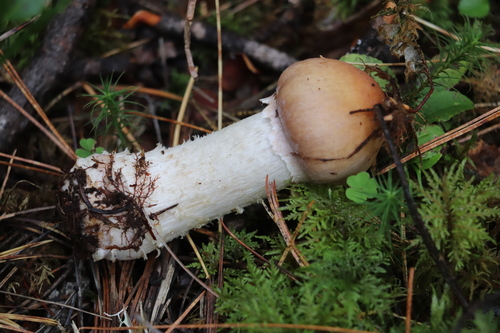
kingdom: Fungi
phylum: Basidiomycota
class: Agaricomycetes
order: Agaricales
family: Cortinariaceae
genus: Cortinarius
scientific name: Cortinarius caperatus
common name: The gypsy
